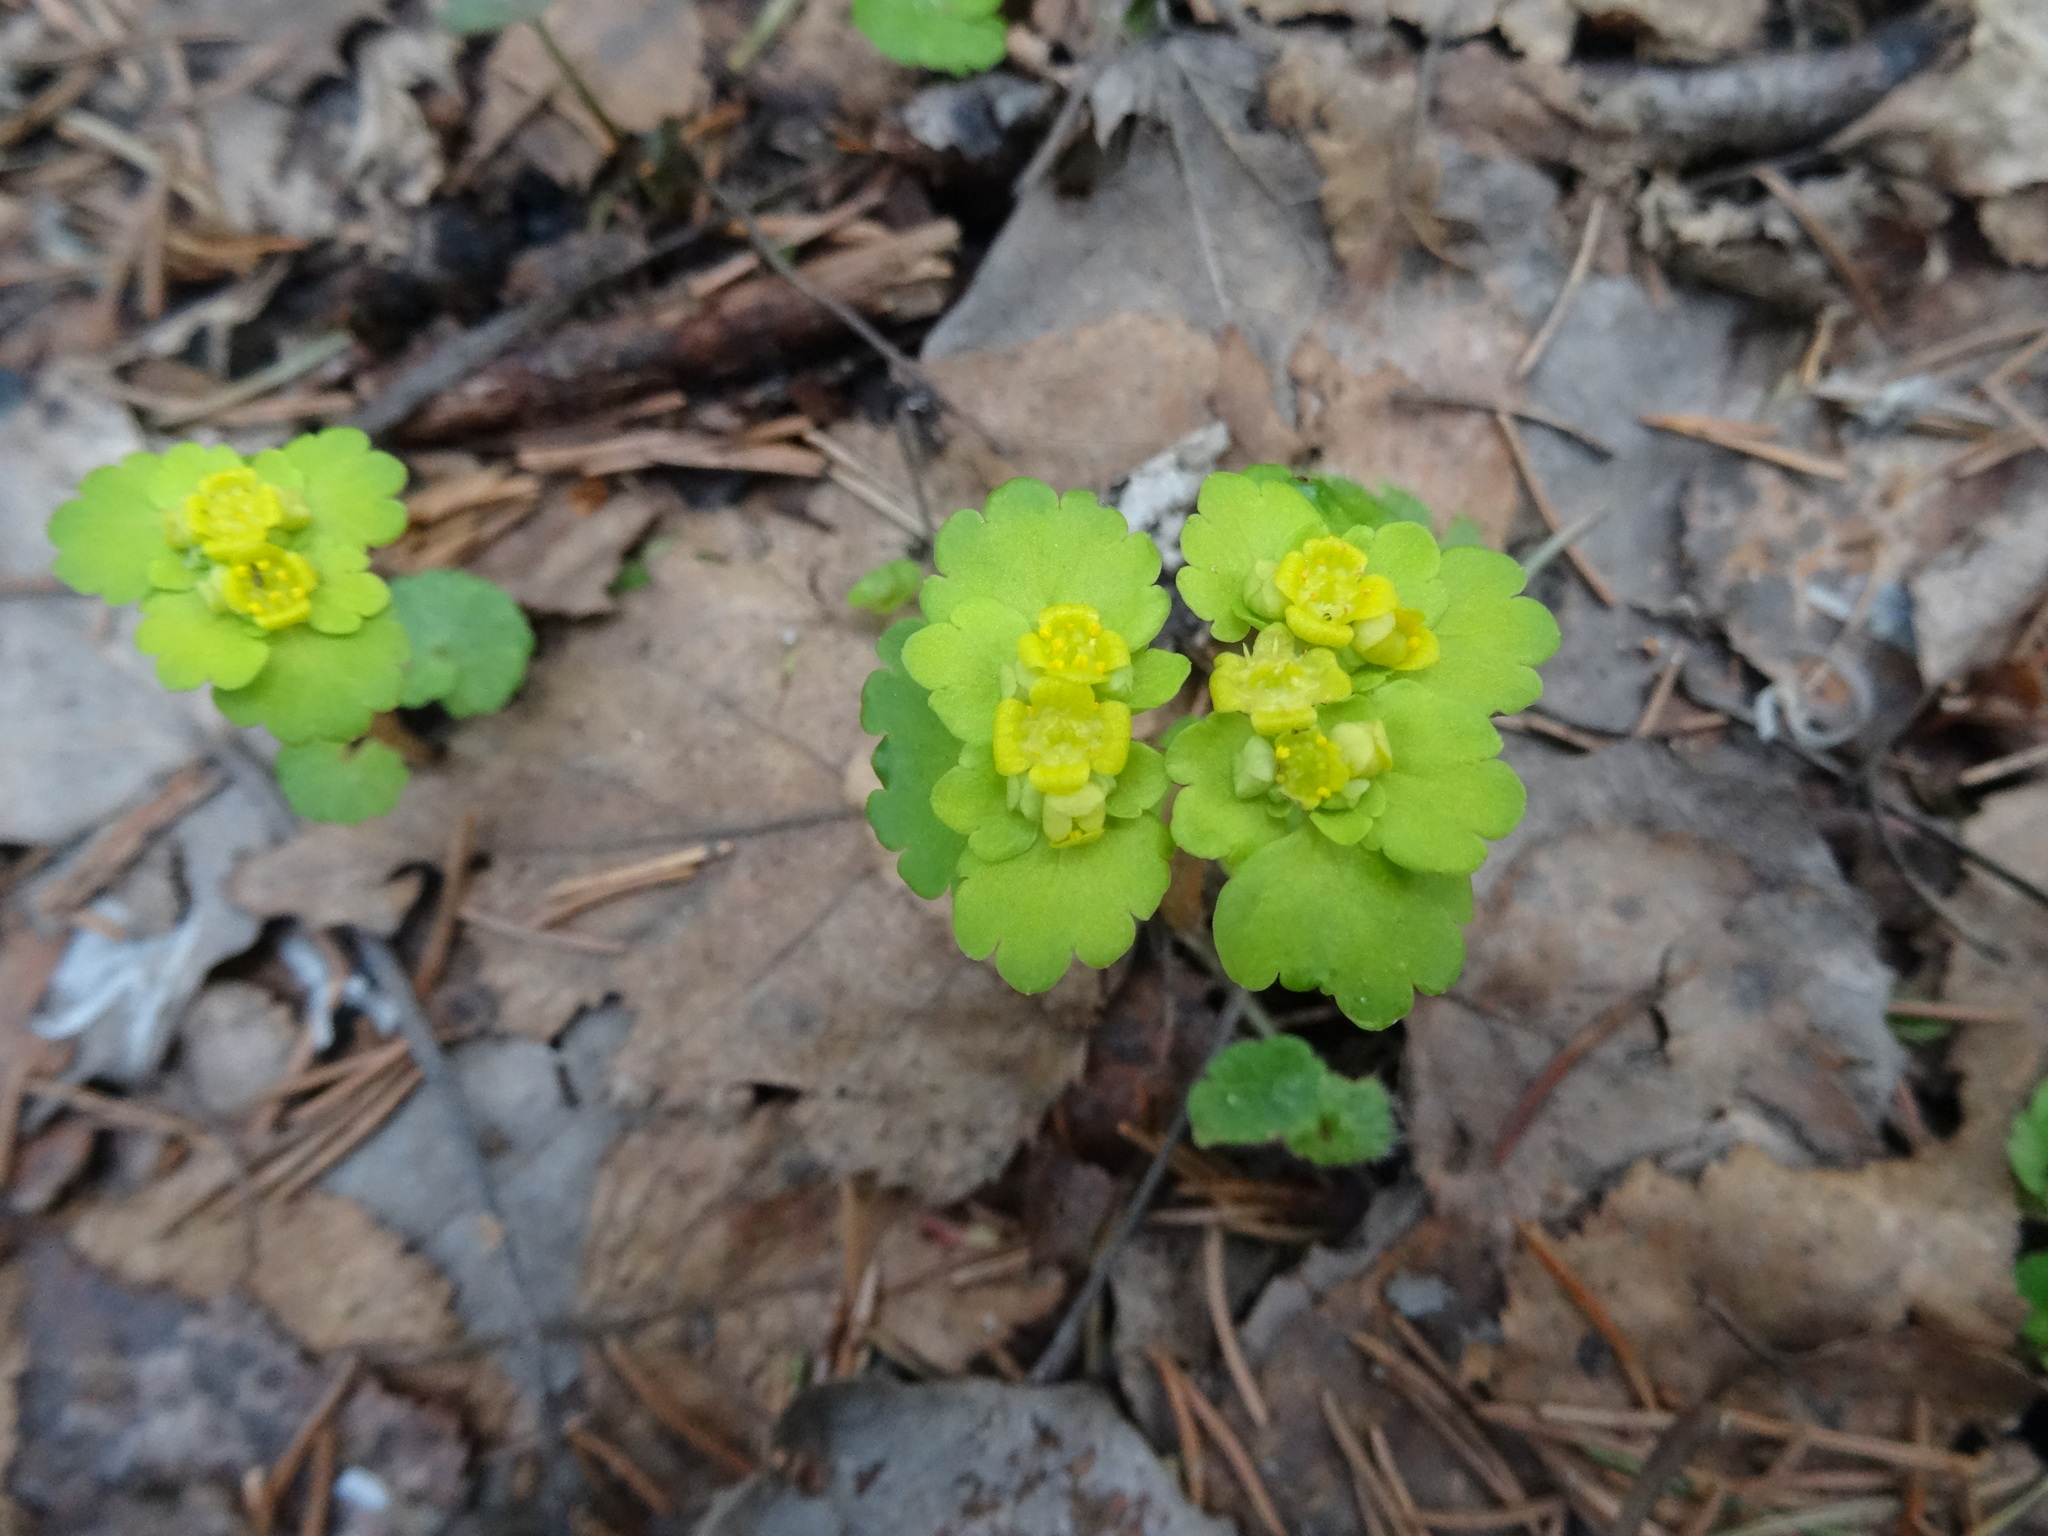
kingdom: Plantae
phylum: Tracheophyta
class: Magnoliopsida
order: Saxifragales
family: Saxifragaceae
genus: Chrysosplenium
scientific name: Chrysosplenium alternifolium
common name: Alternate-leaved golden-saxifrage
